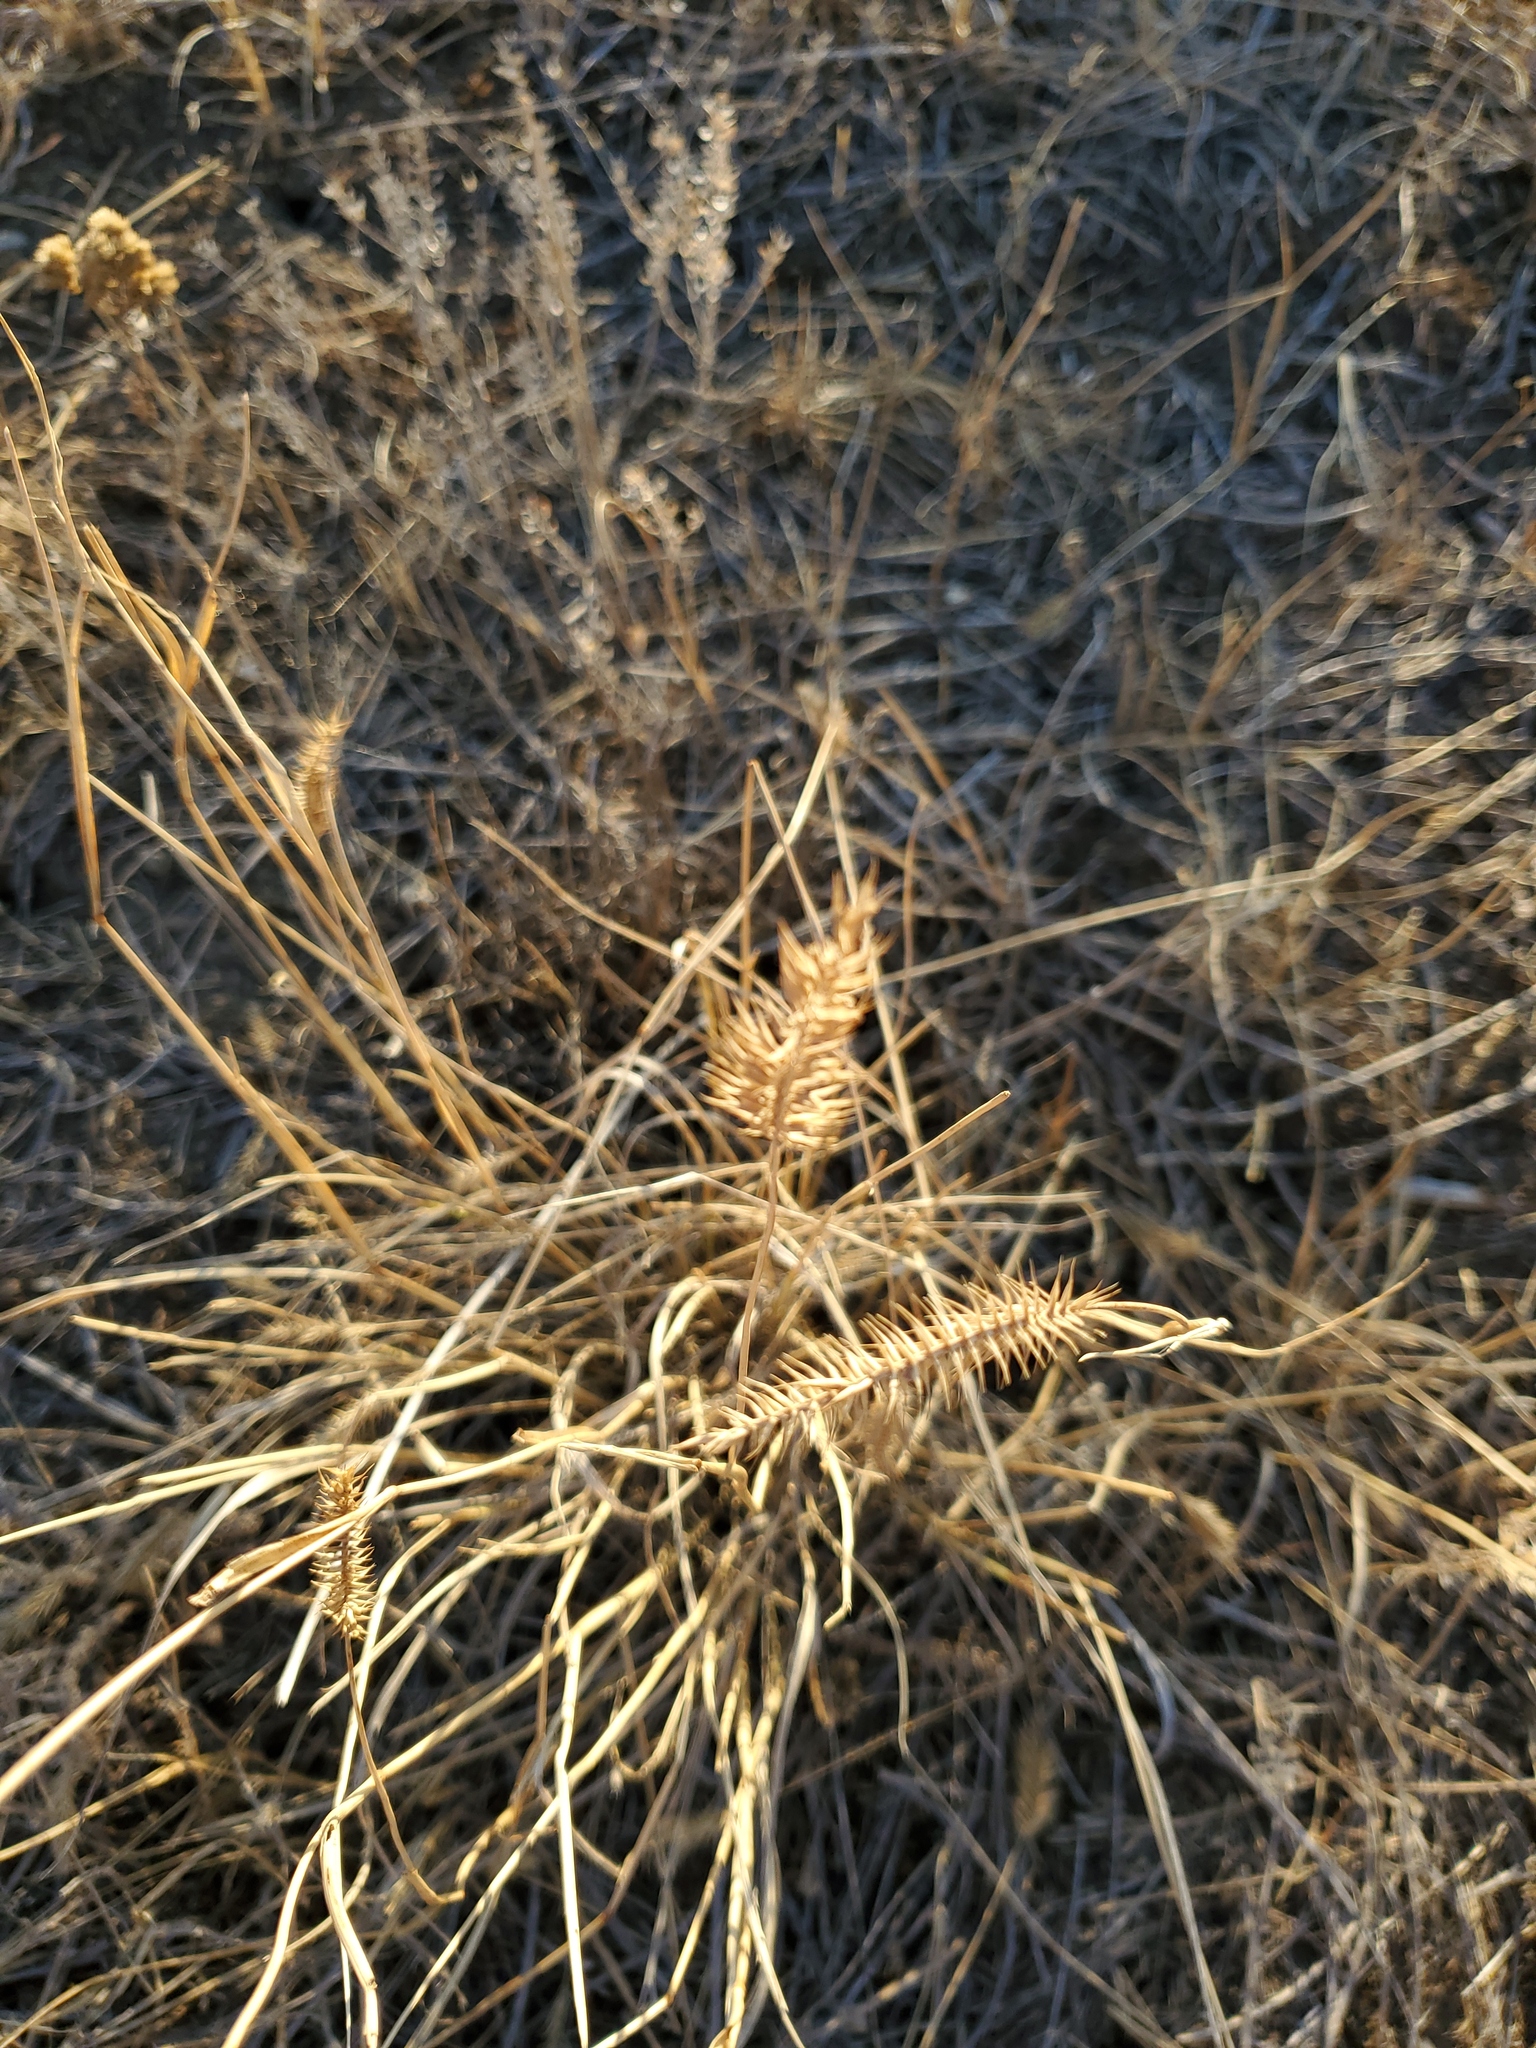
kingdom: Plantae
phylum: Tracheophyta
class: Liliopsida
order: Poales
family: Poaceae
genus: Agropyron
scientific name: Agropyron cristatum
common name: Crested wheatgrass
